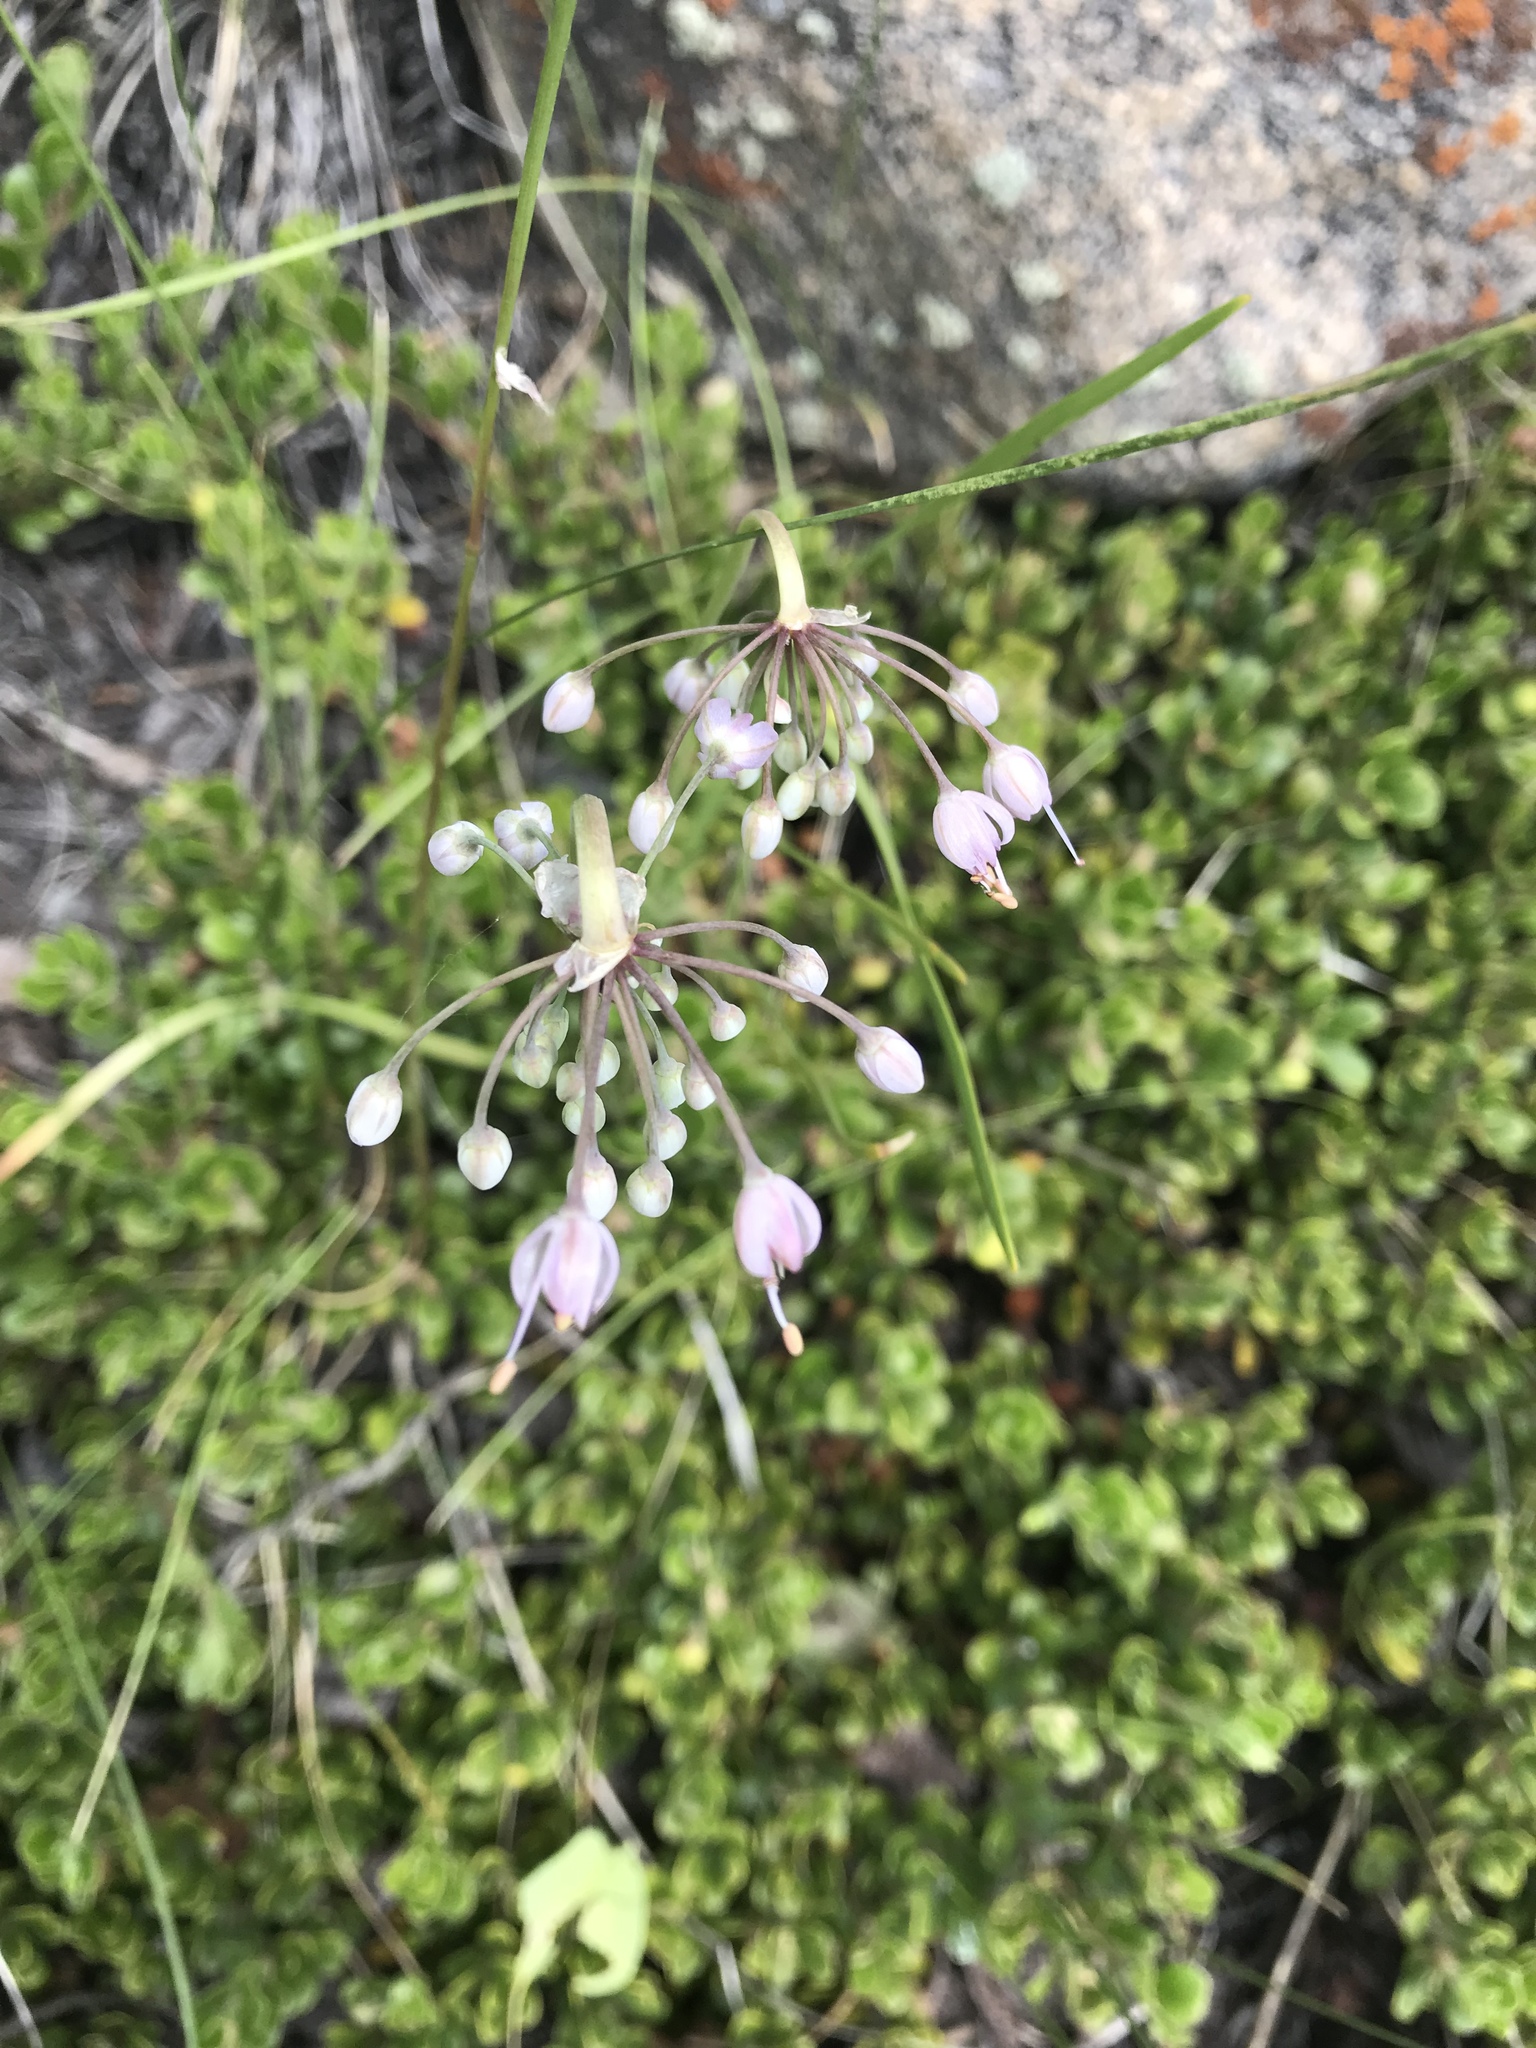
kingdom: Plantae
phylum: Tracheophyta
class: Liliopsida
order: Asparagales
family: Amaryllidaceae
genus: Allium
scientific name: Allium cernuum
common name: Nodding onion
